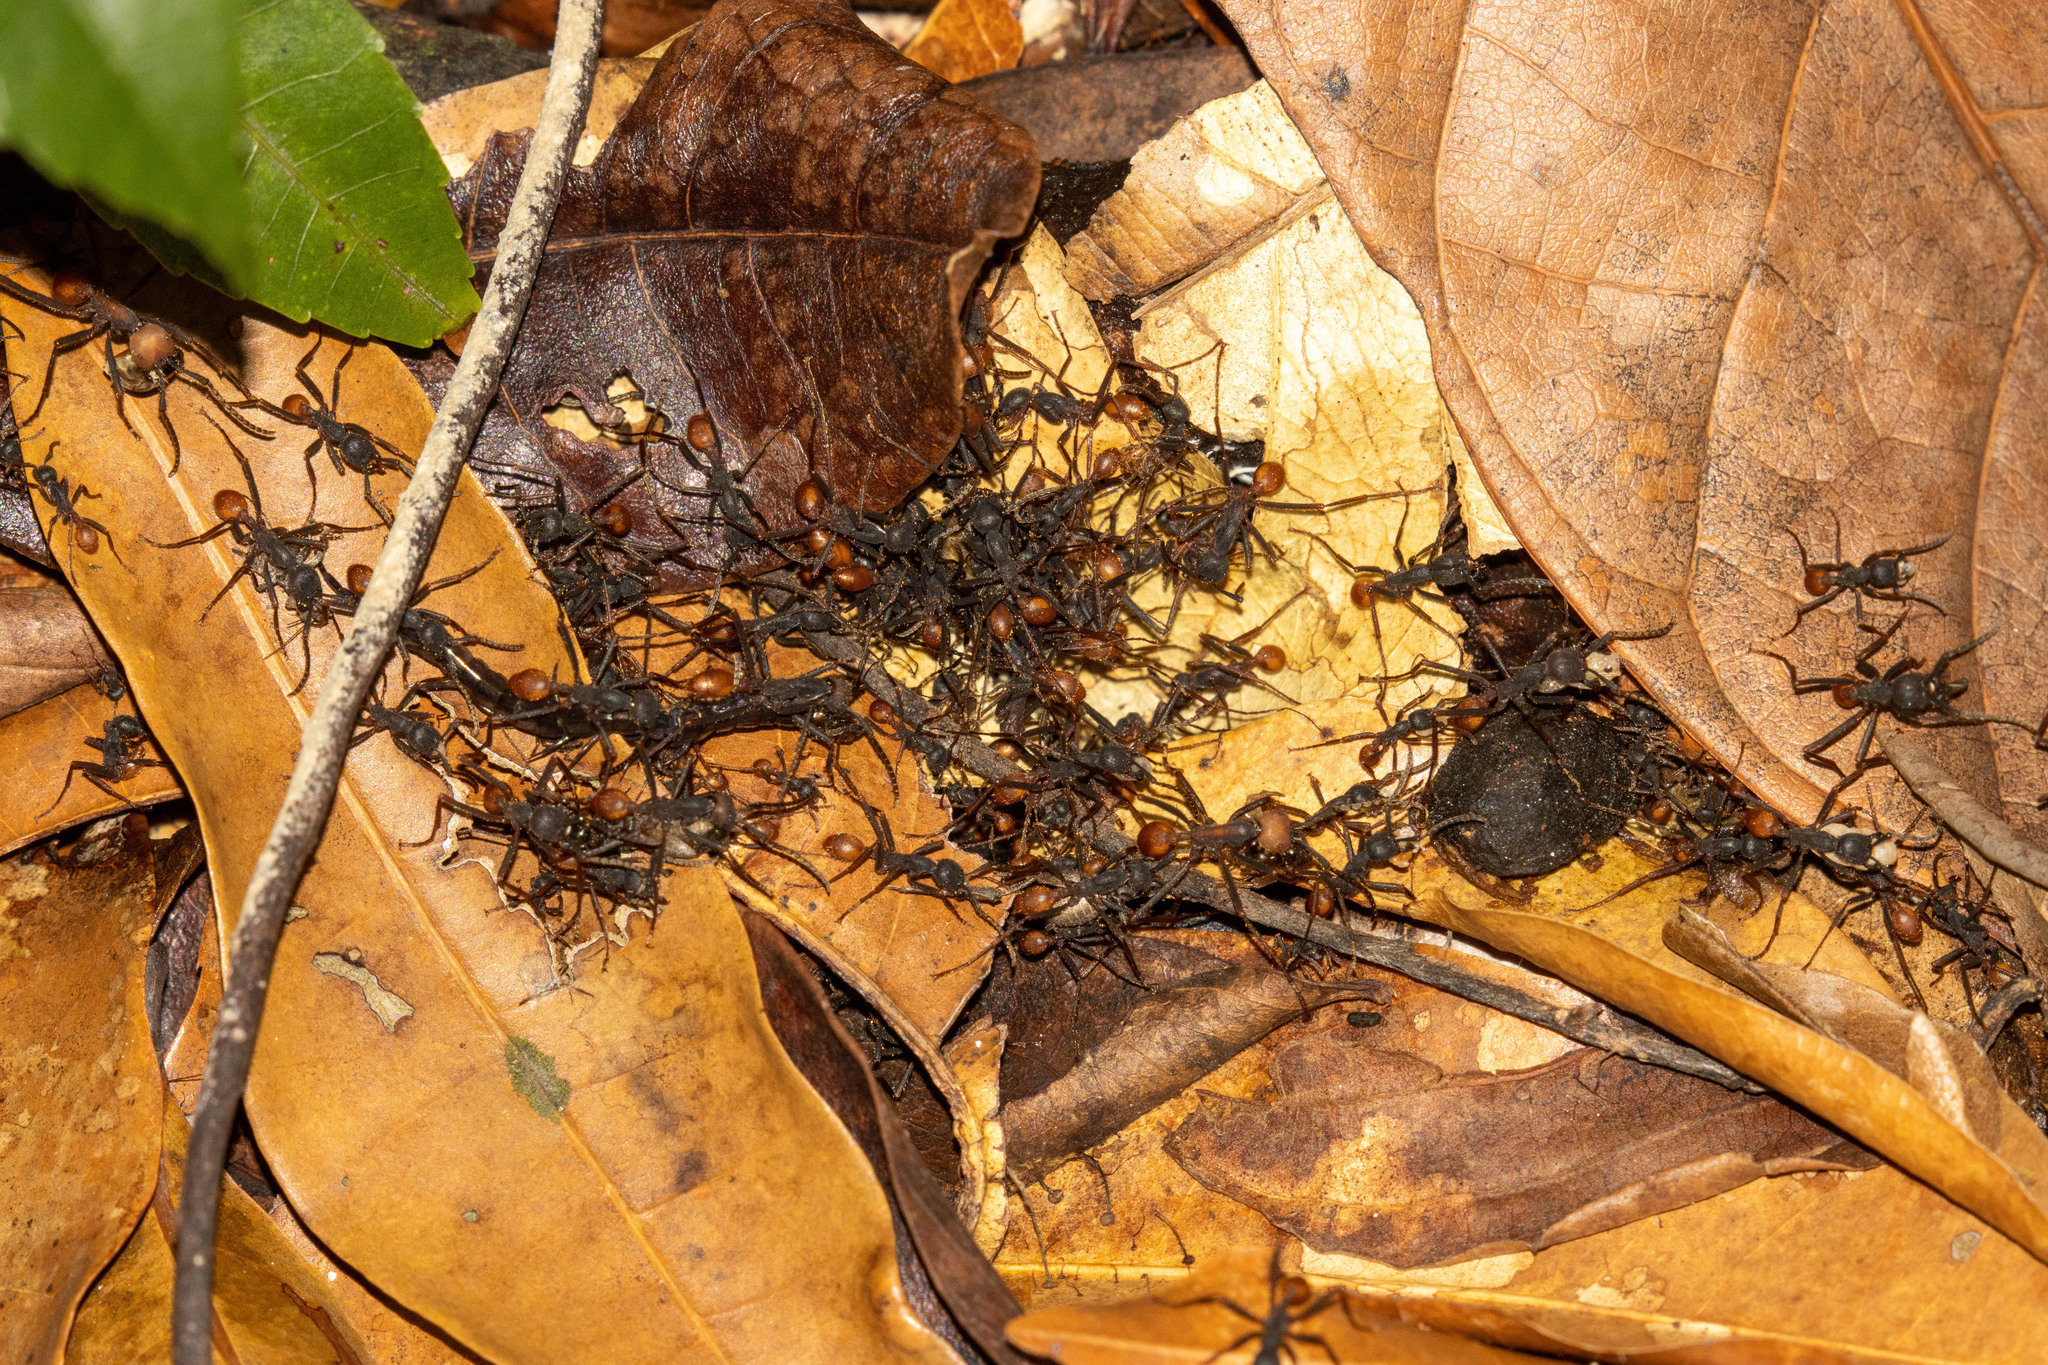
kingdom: Animalia
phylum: Arthropoda
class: Insecta
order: Hymenoptera
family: Formicidae
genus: Eciton
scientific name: Eciton burchellii
